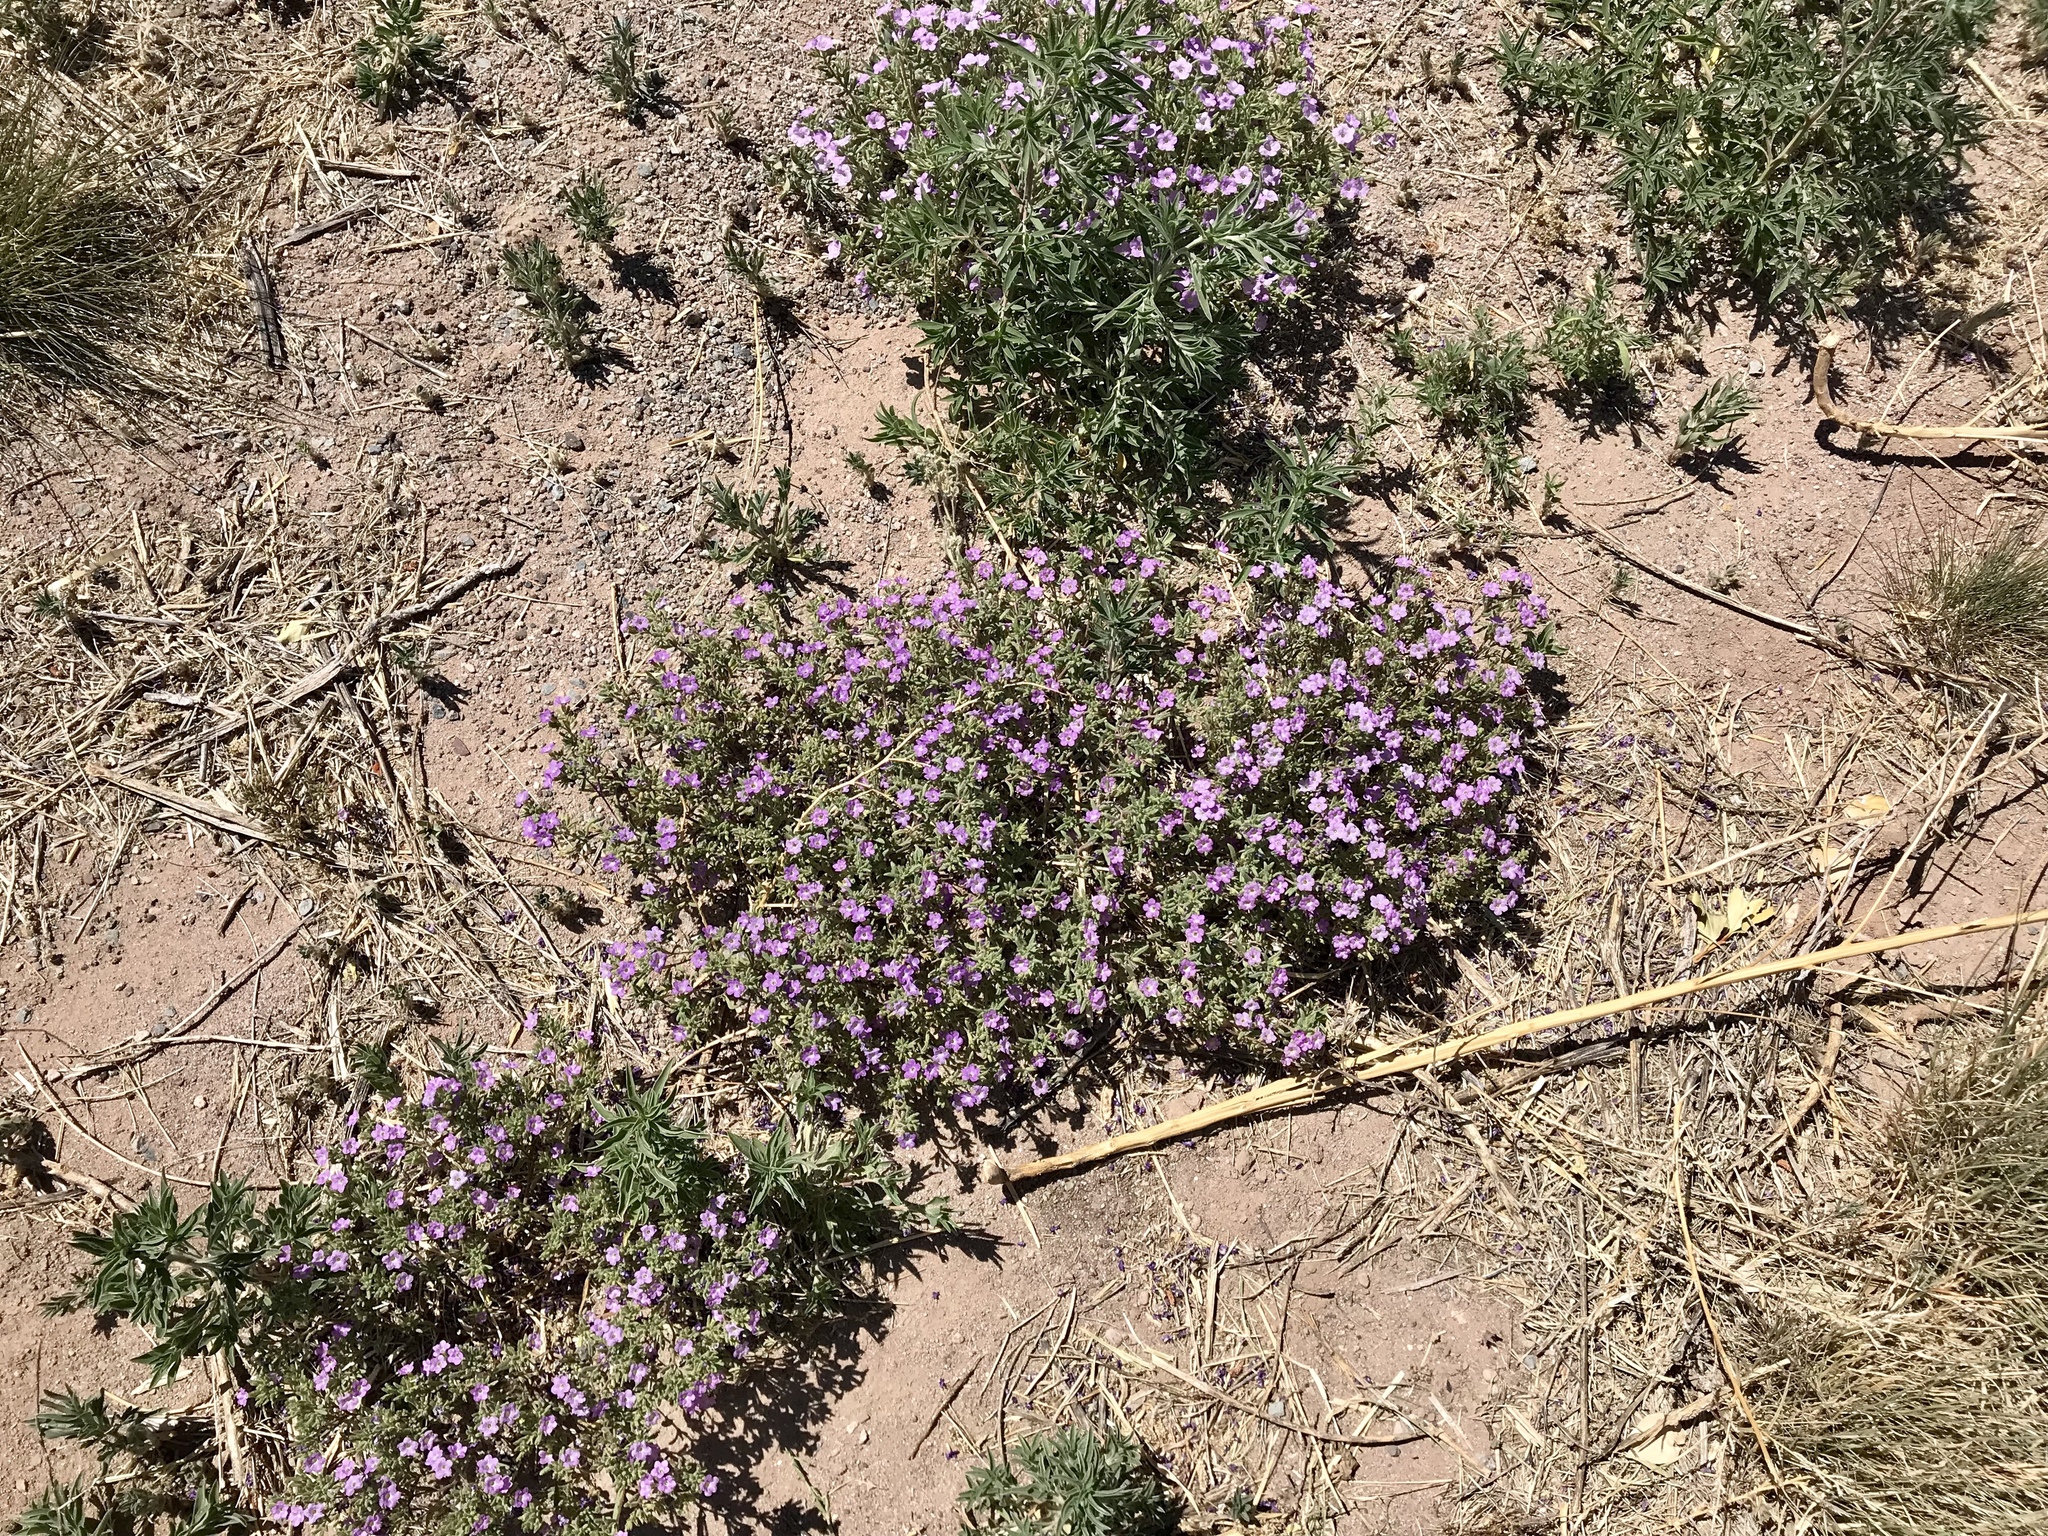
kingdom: Plantae
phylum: Tracheophyta
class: Magnoliopsida
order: Boraginales
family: Namaceae
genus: Nama
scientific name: Nama hispida
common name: Bristly nama
